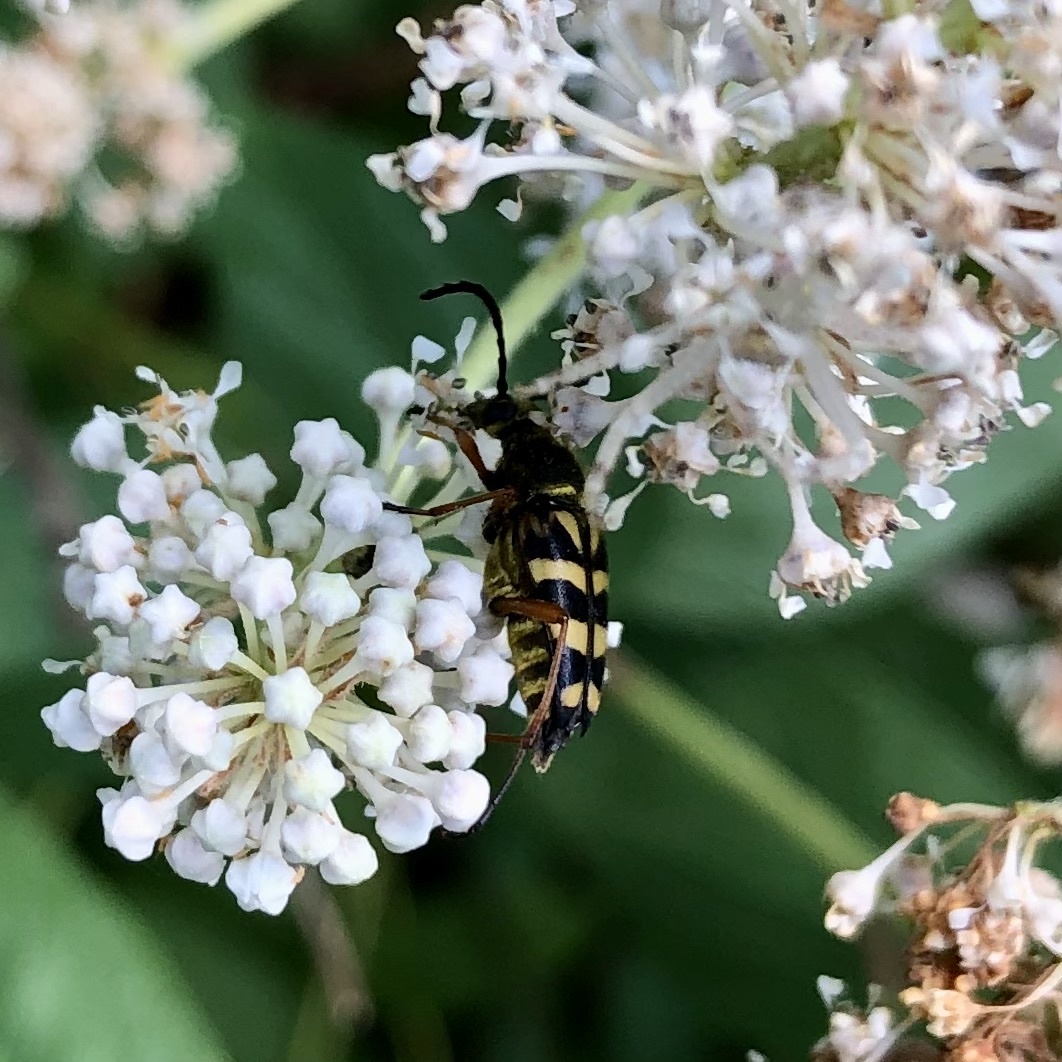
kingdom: Animalia
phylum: Arthropoda
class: Insecta
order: Coleoptera
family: Cerambycidae
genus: Typocerus
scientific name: Typocerus zebra
